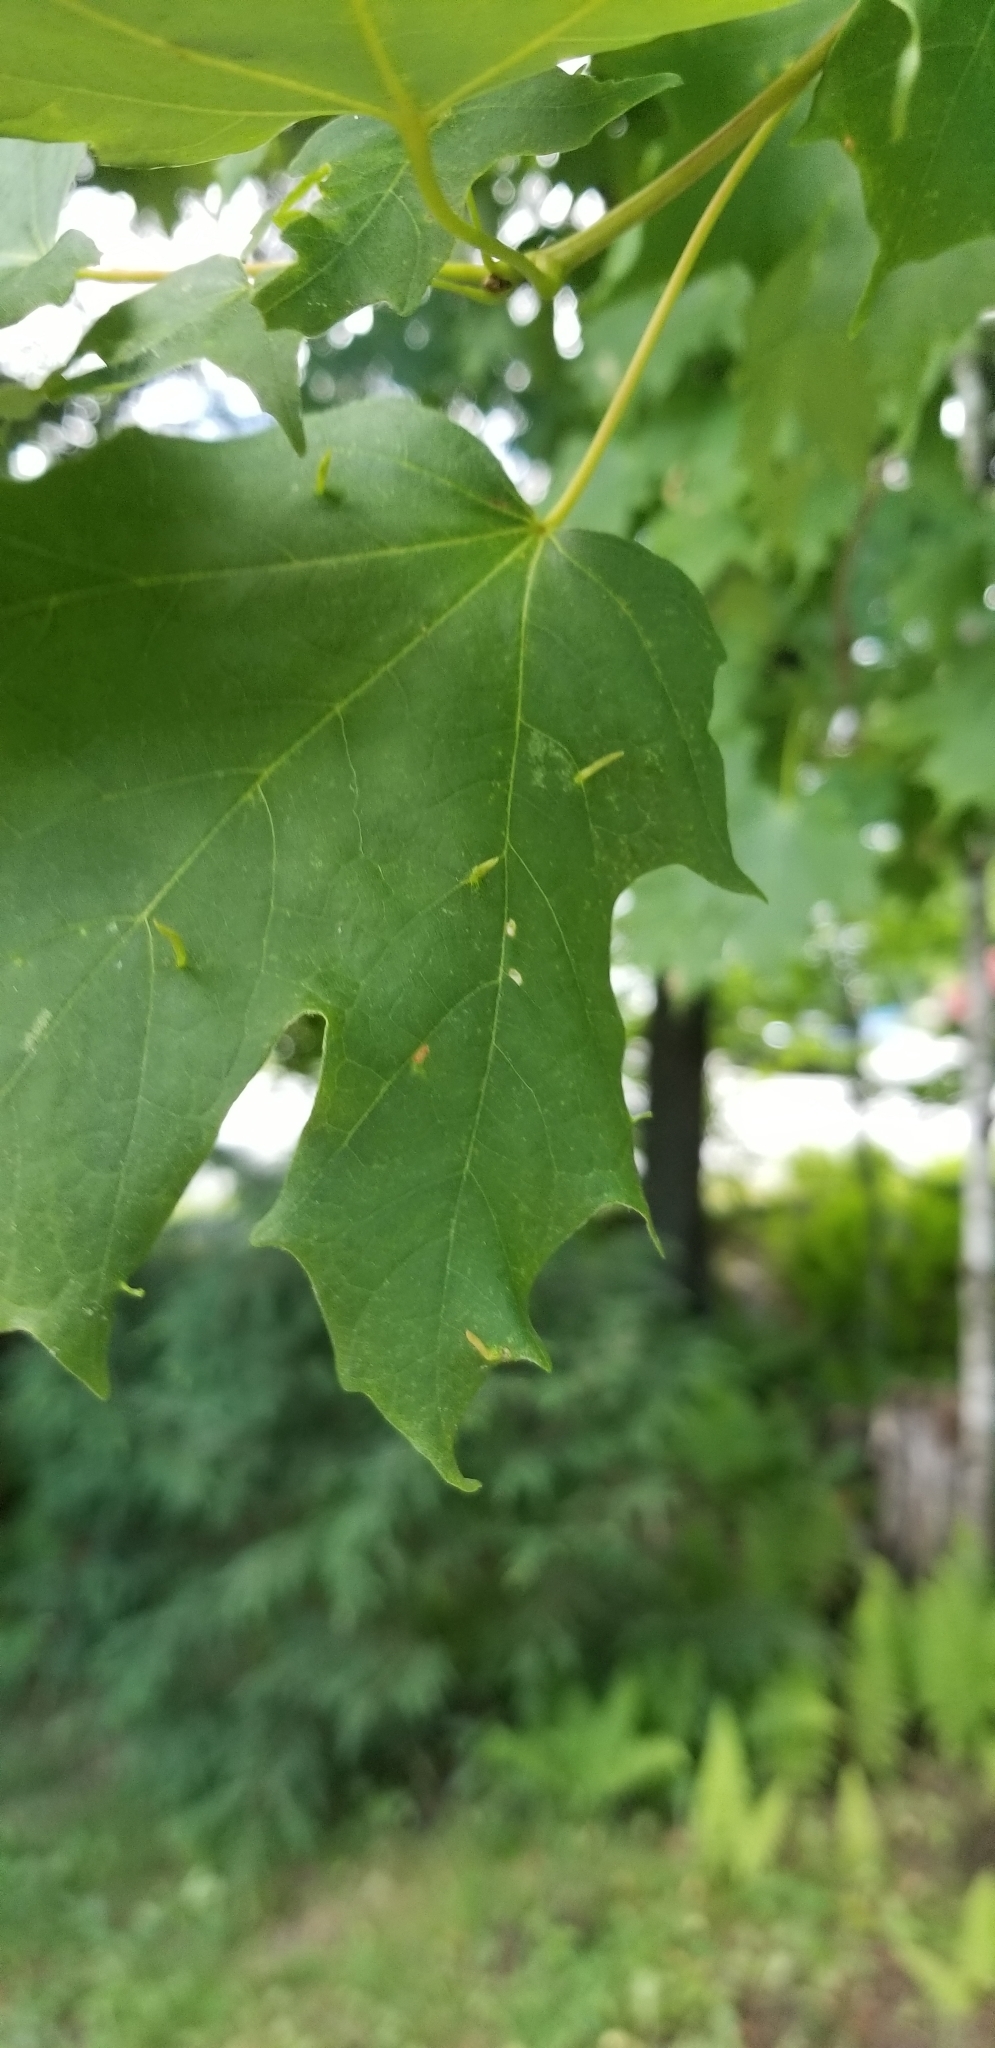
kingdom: Animalia
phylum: Arthropoda
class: Arachnida
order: Trombidiformes
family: Eriophyidae
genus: Vasates
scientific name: Vasates aceriscrumena
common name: Maple spindle gall mite
